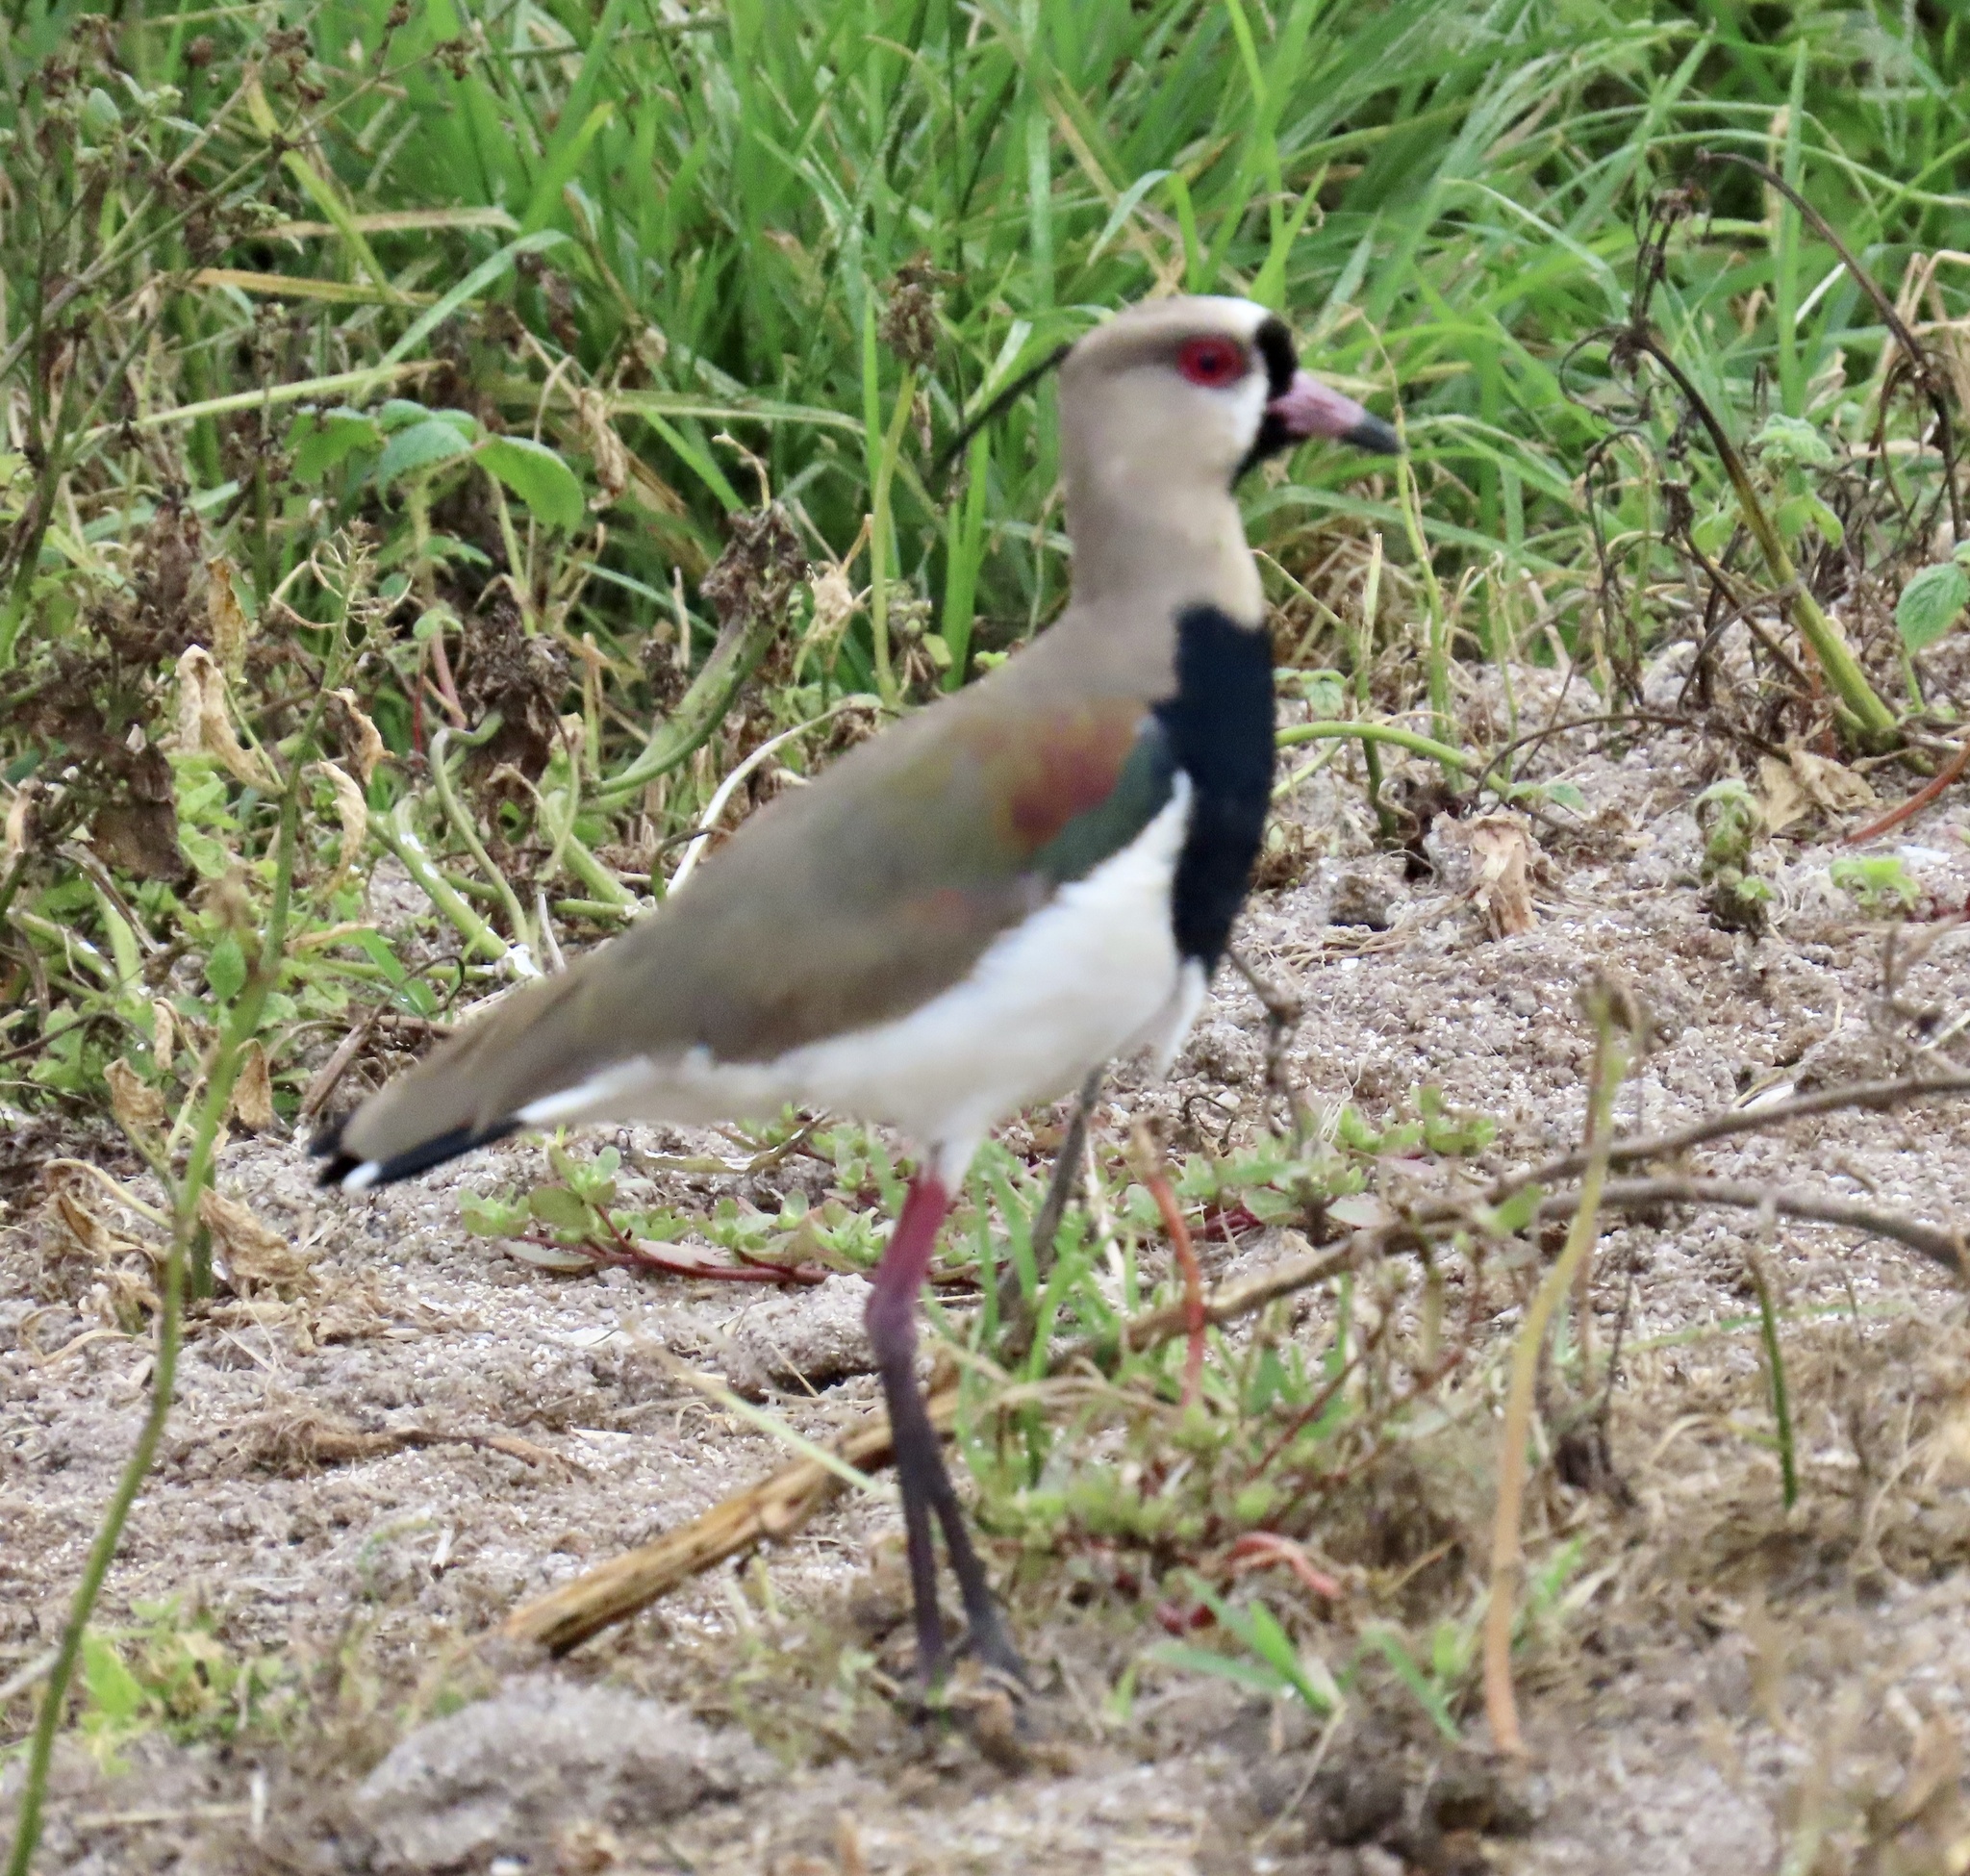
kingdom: Animalia
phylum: Chordata
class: Aves
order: Charadriiformes
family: Charadriidae
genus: Vanellus
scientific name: Vanellus chilensis
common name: Southern lapwing
